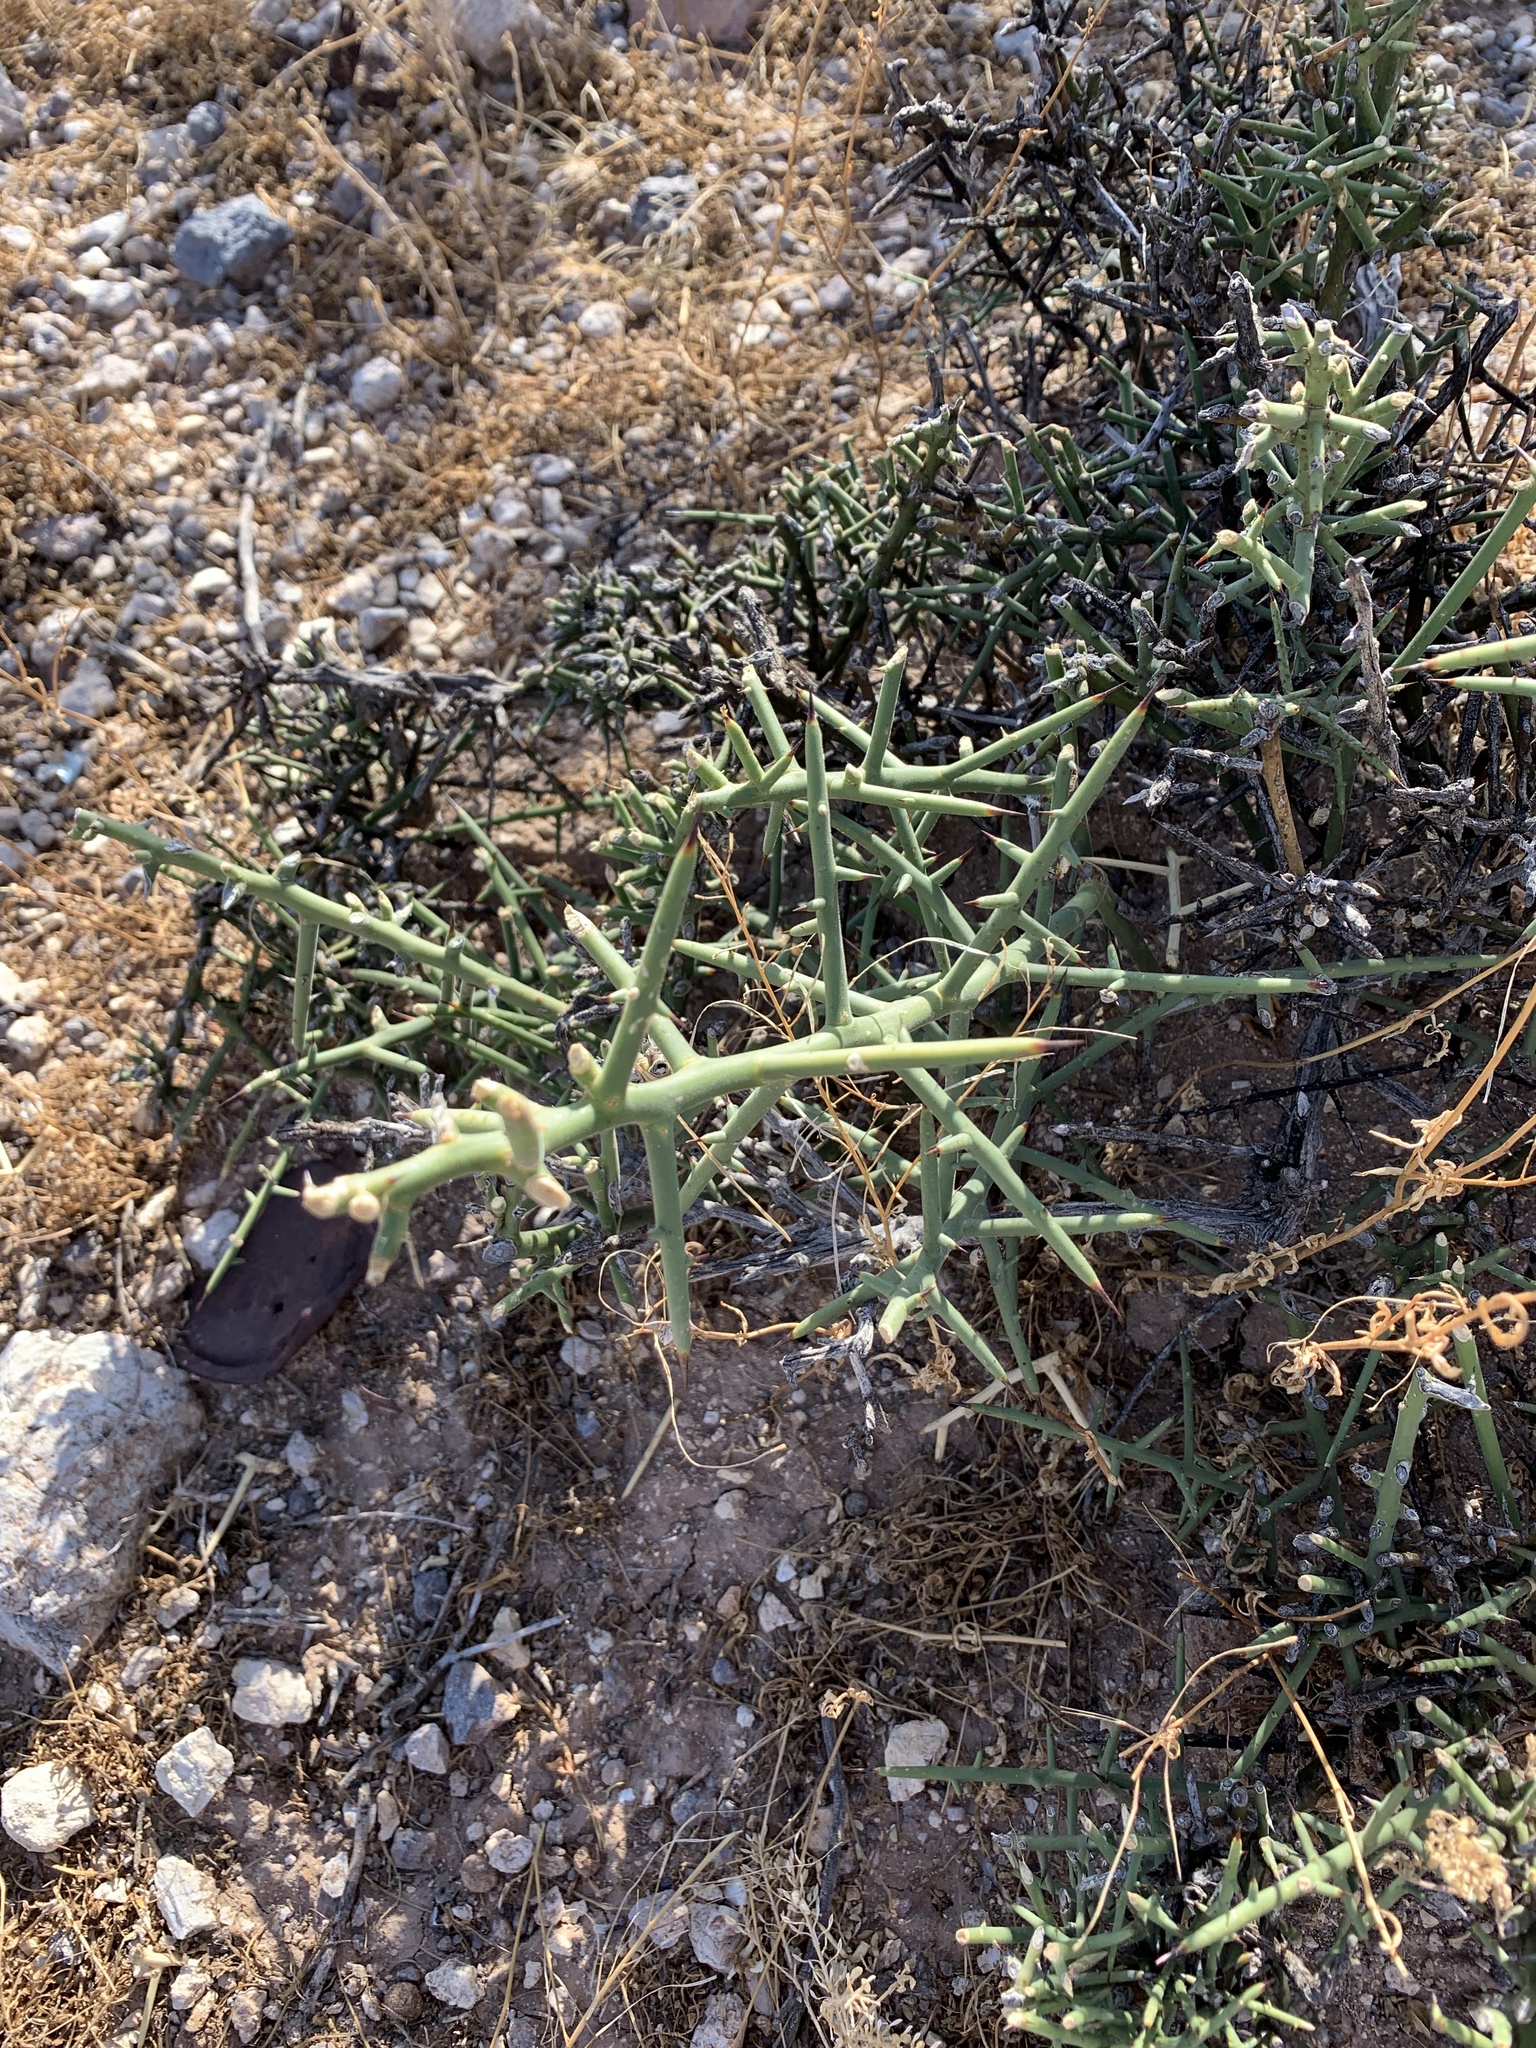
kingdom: Plantae
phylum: Tracheophyta
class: Magnoliopsida
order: Brassicales
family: Koeberliniaceae
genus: Koeberlinia
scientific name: Koeberlinia spinosa
